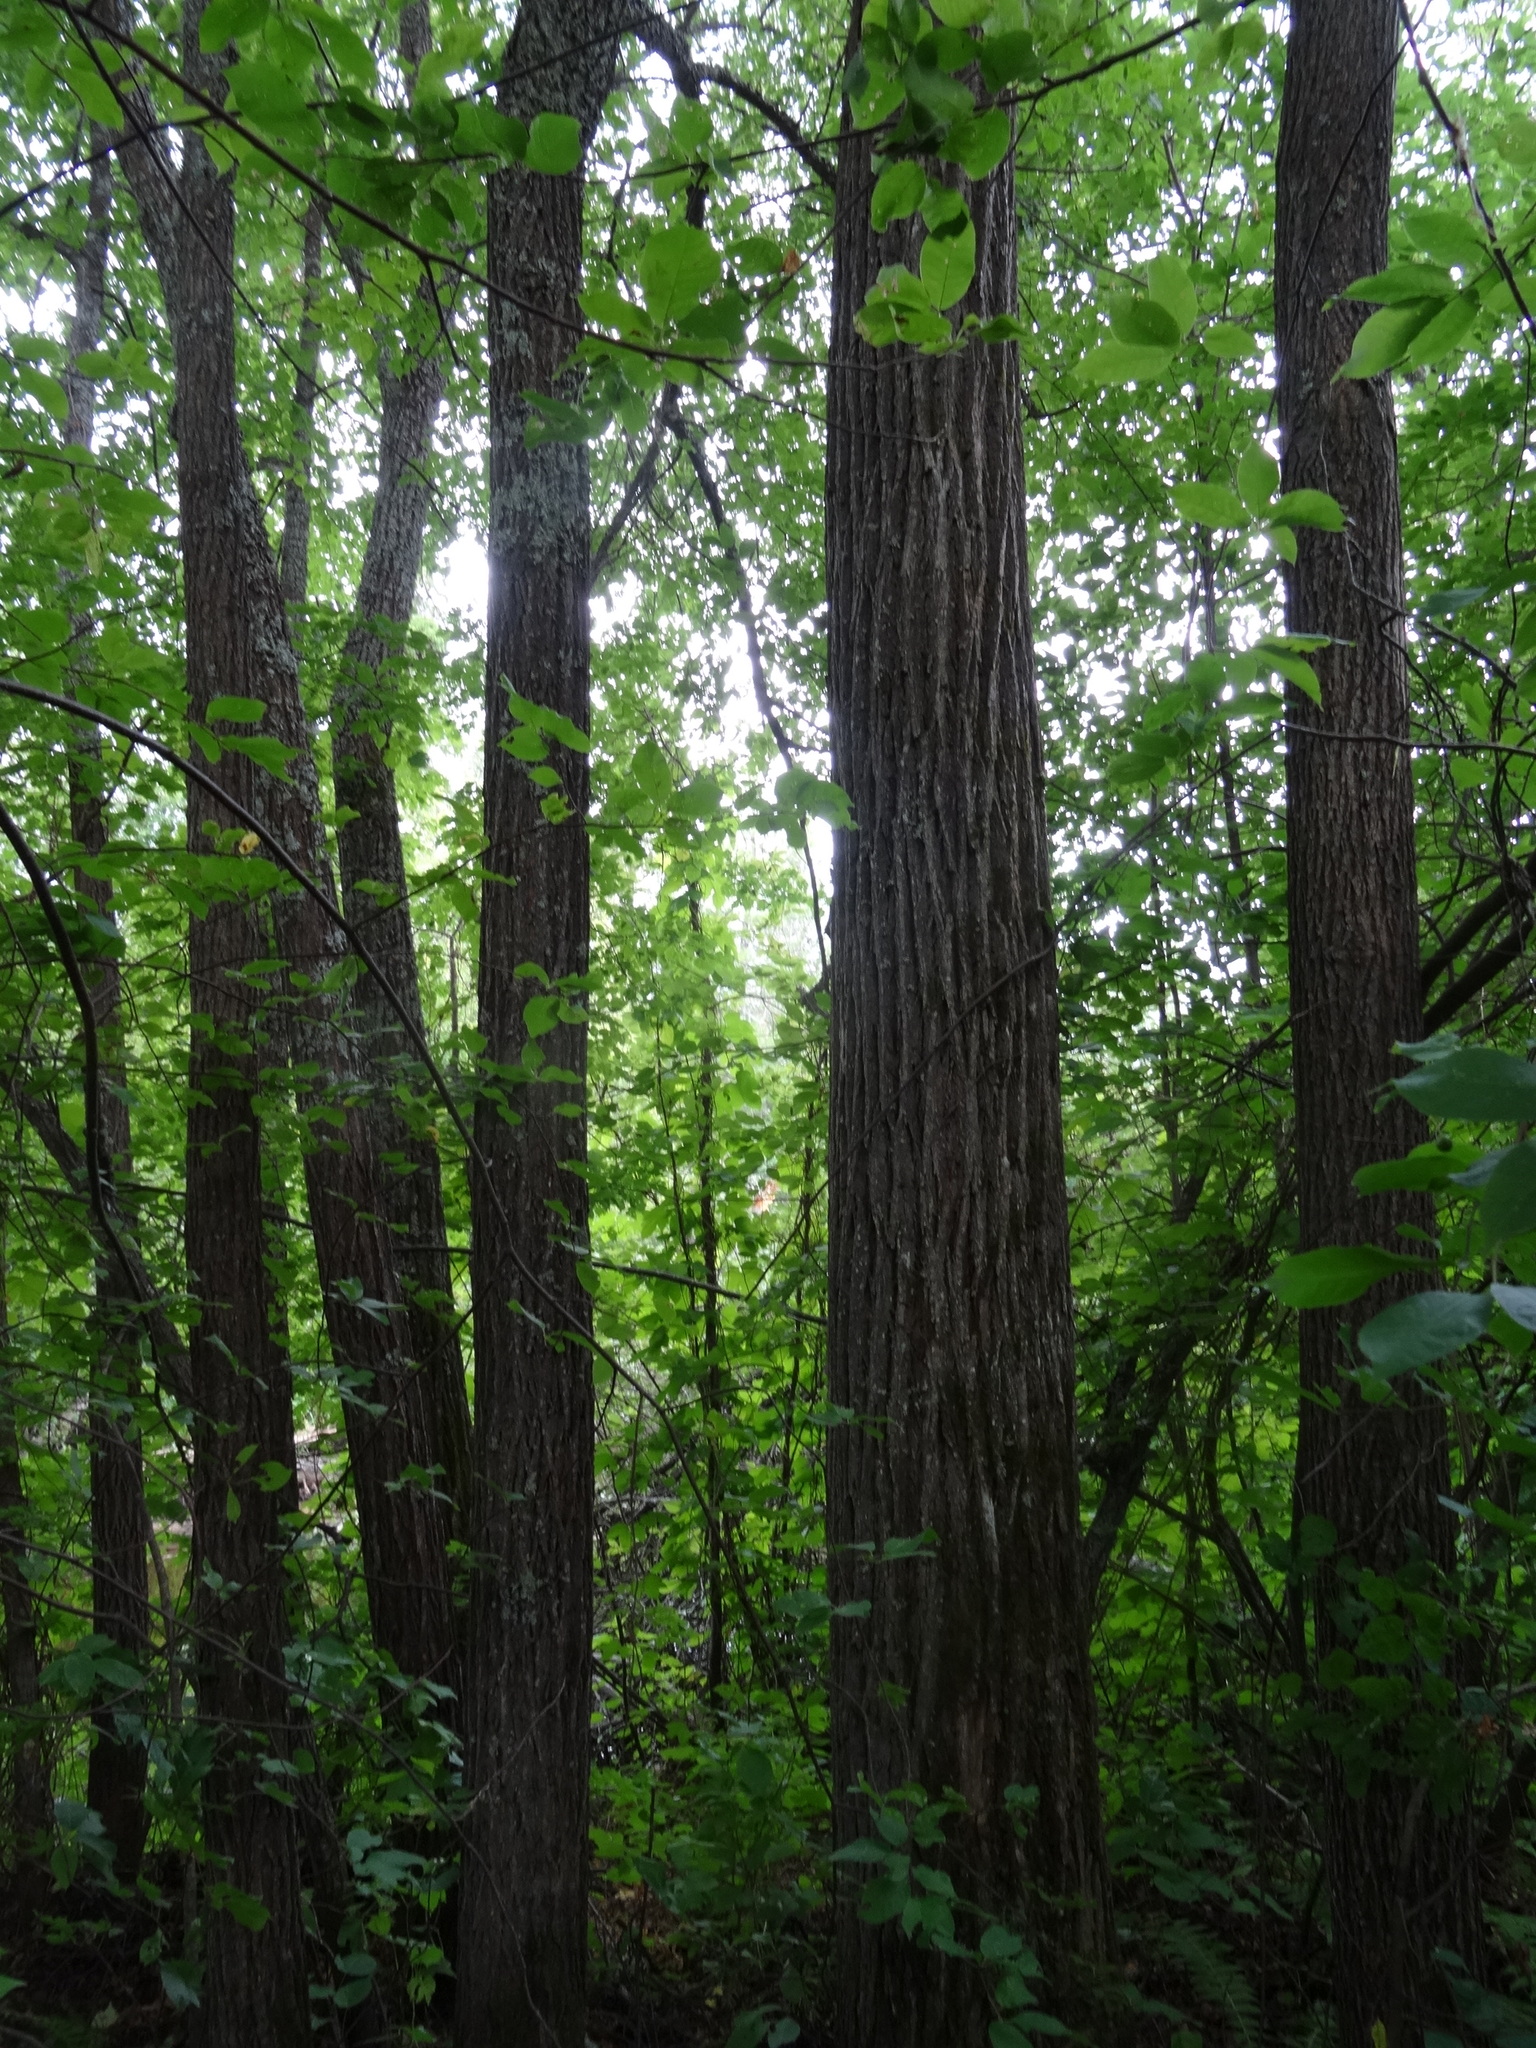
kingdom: Plantae
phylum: Tracheophyta
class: Magnoliopsida
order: Malvales
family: Malvaceae
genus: Tilia
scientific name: Tilia cordata
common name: Small-leaved lime
